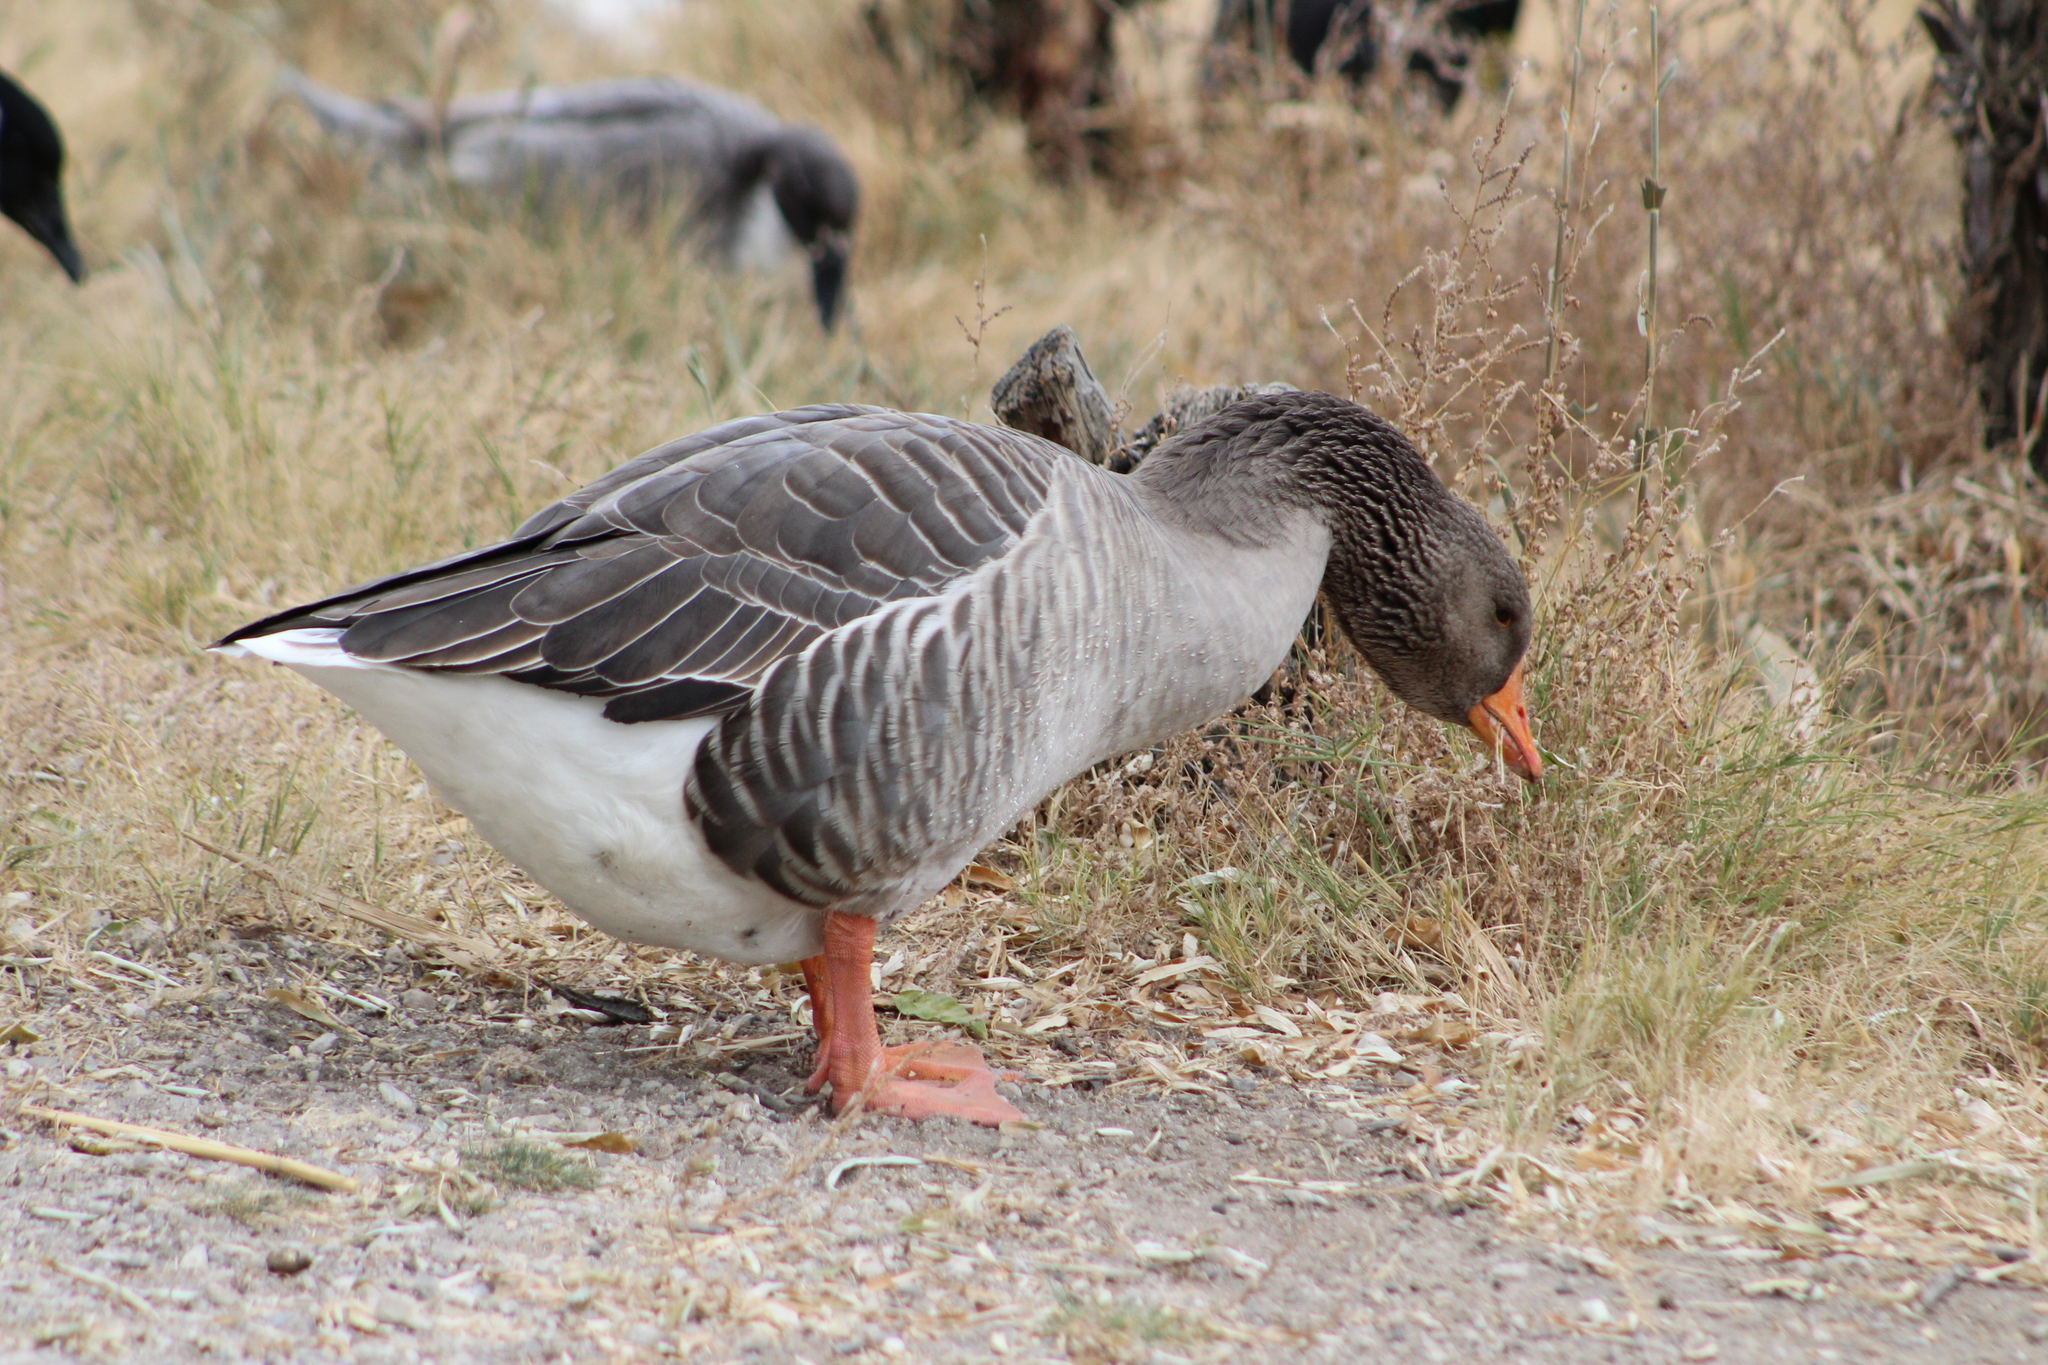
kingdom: Animalia
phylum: Chordata
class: Aves
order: Anseriformes
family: Anatidae
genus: Anser
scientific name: Anser anser
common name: Greylag goose
